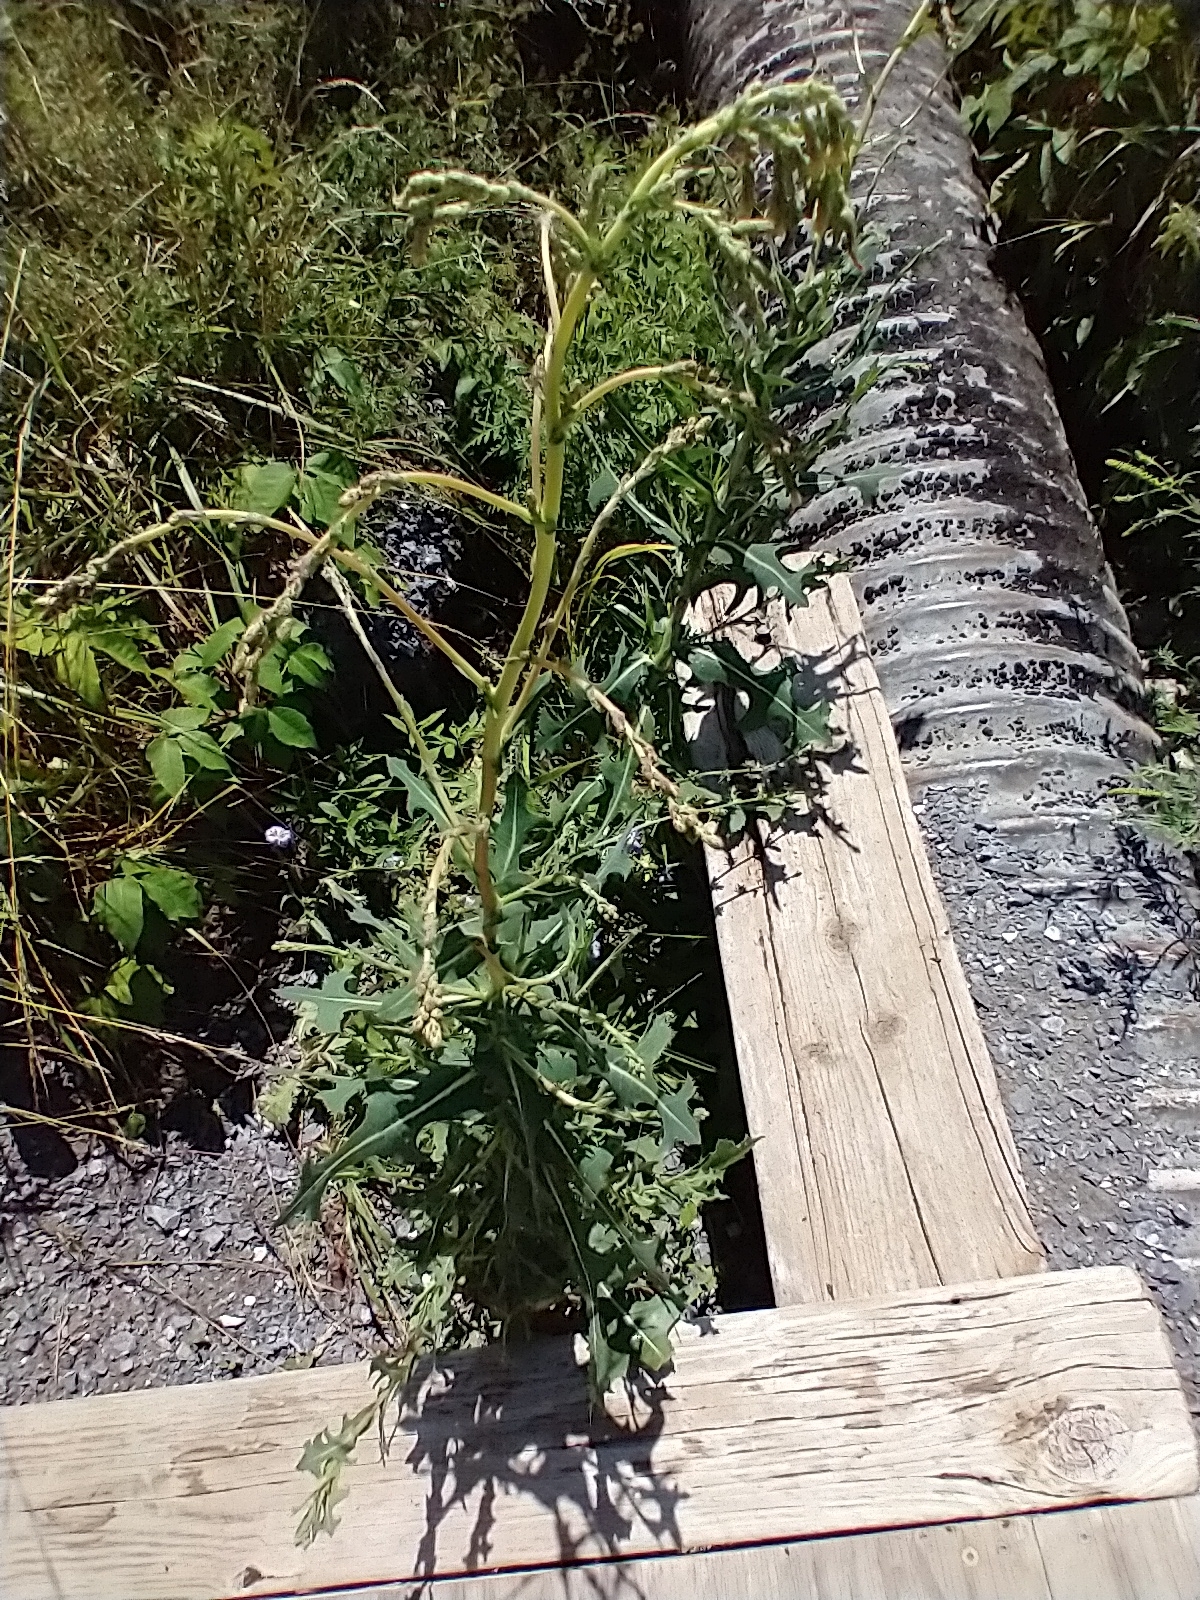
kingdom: Plantae
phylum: Tracheophyta
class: Magnoliopsida
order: Asterales
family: Asteraceae
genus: Lactuca
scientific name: Lactuca serriola
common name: Prickly lettuce
